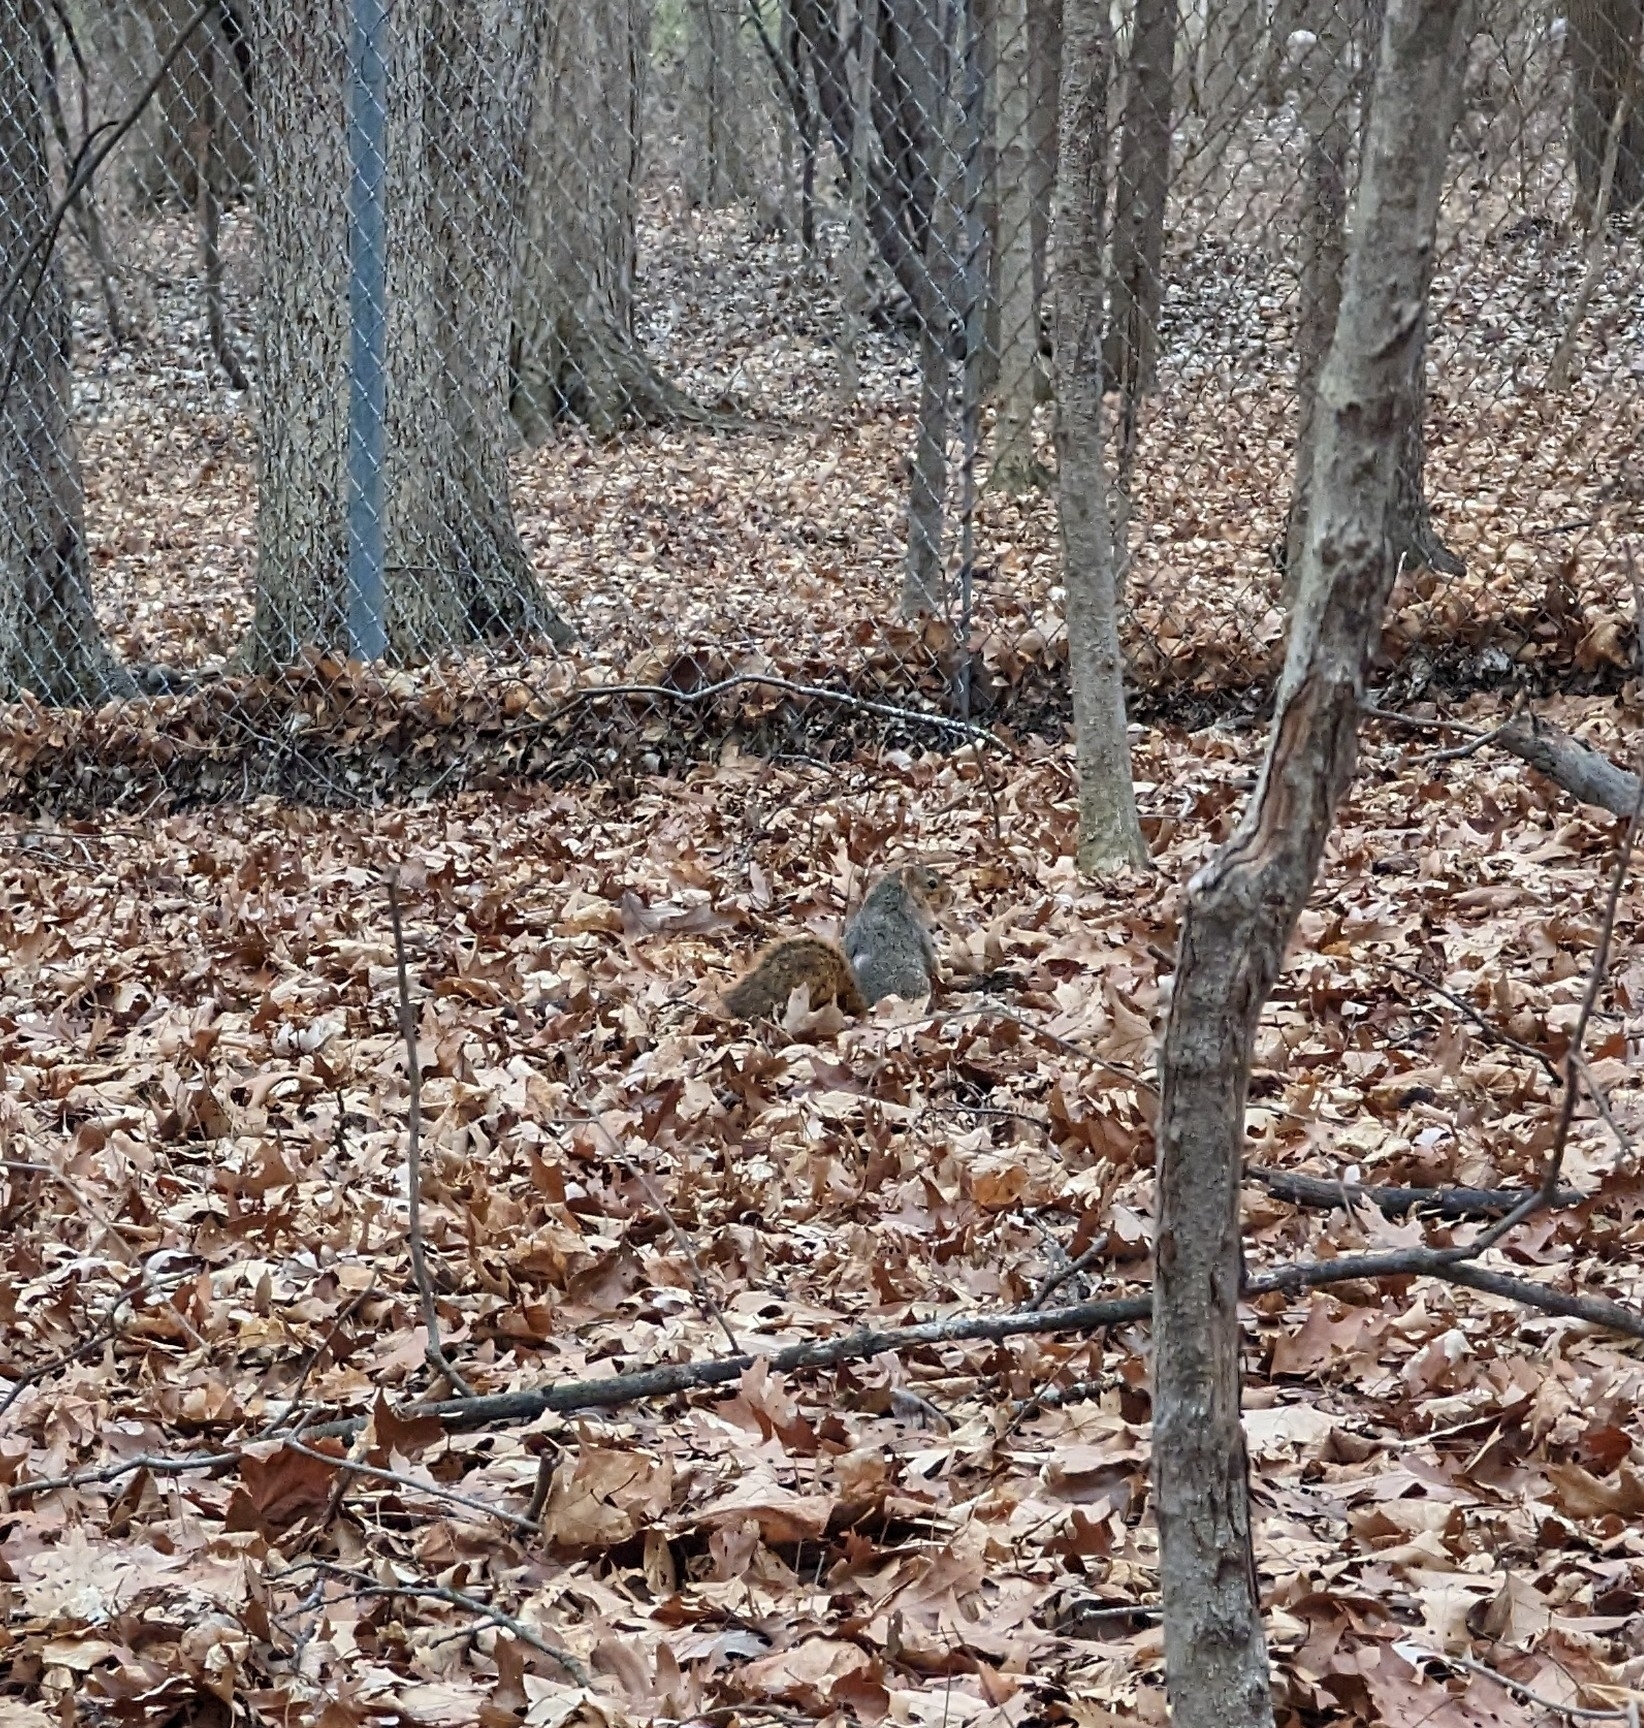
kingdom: Animalia
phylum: Chordata
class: Mammalia
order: Rodentia
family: Sciuridae
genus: Sciurus
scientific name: Sciurus niger
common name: Fox squirrel
